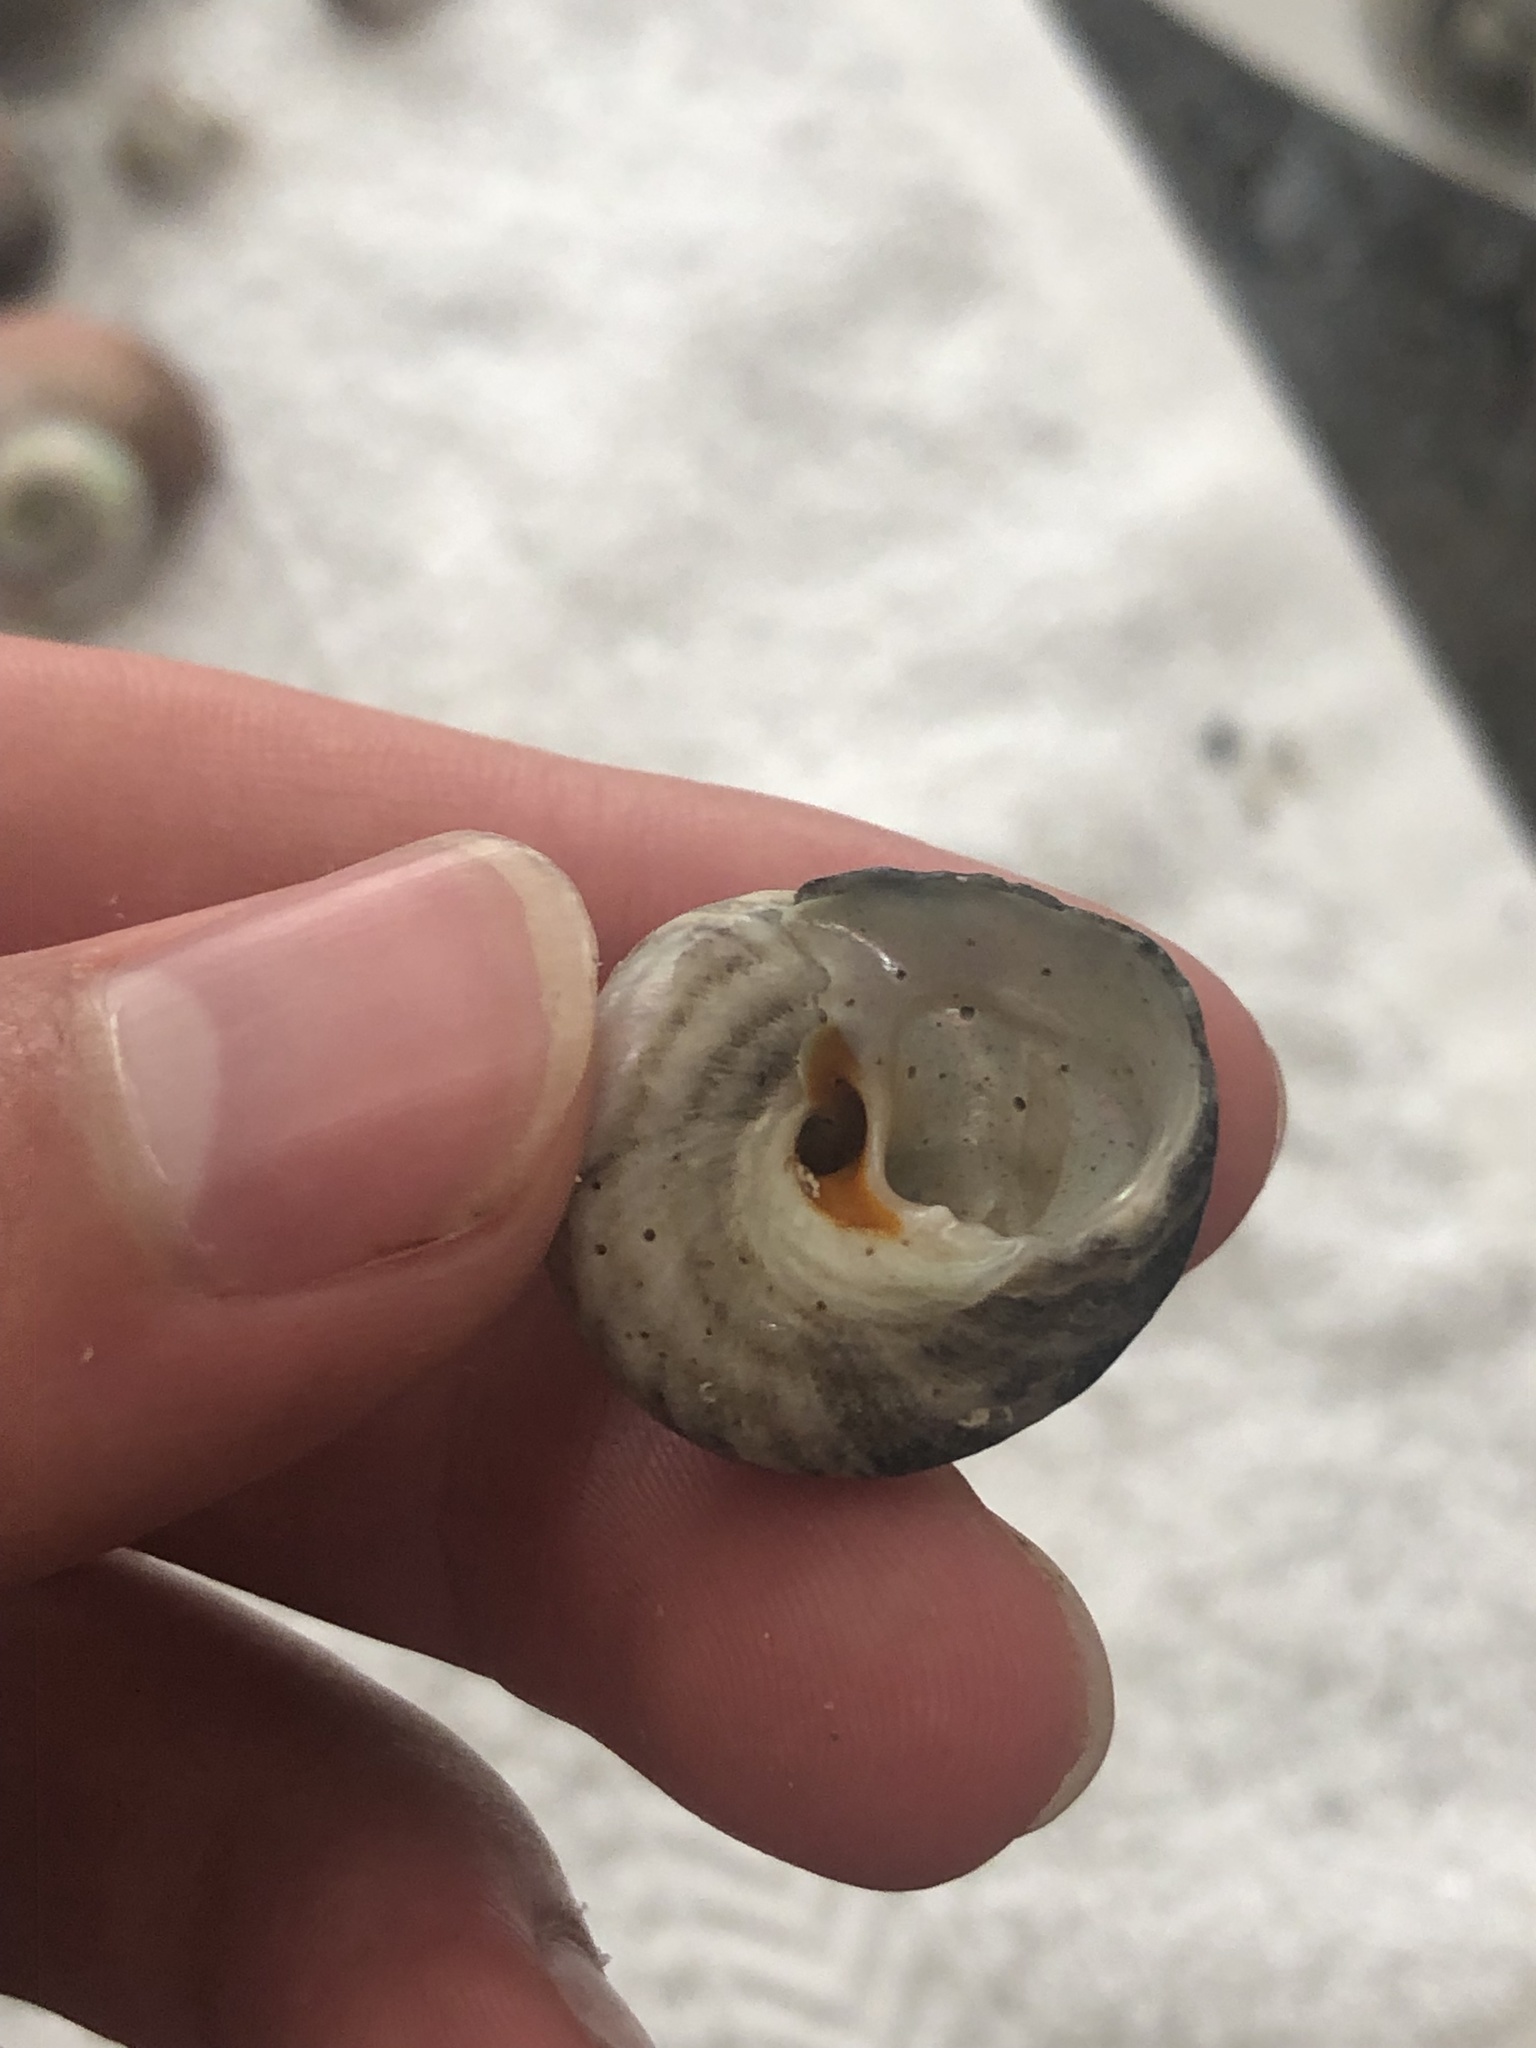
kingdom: Animalia
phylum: Mollusca
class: Gastropoda
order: Trochida
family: Tegulidae
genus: Tegula
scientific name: Tegula aureotincta
